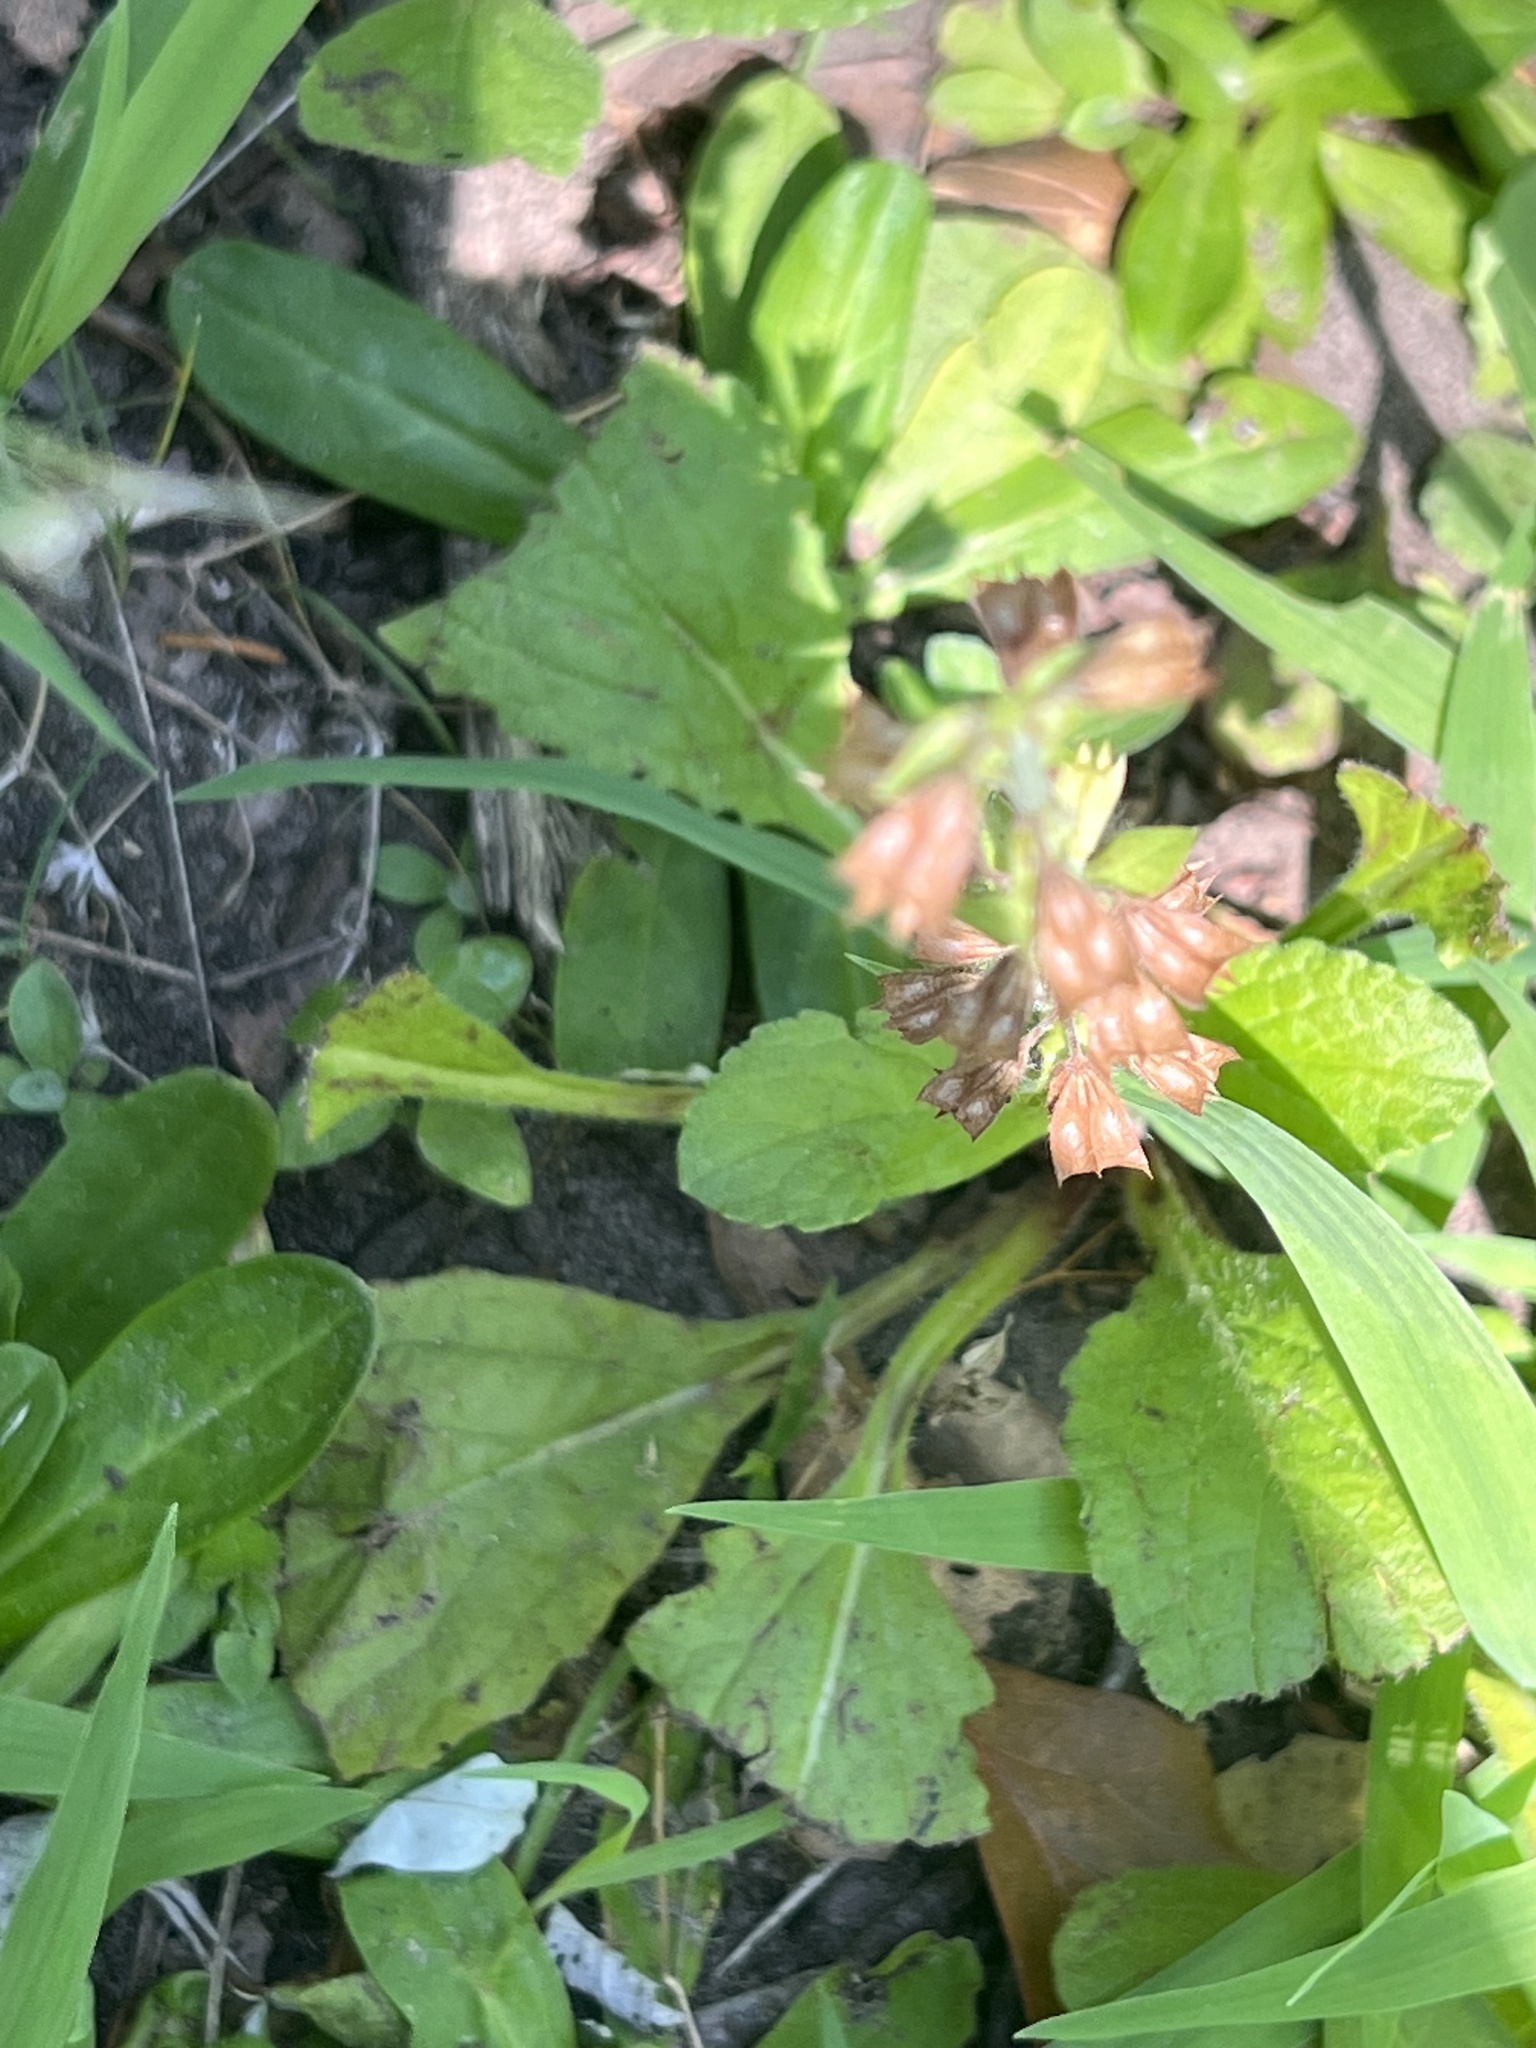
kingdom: Plantae
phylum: Tracheophyta
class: Magnoliopsida
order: Lamiales
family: Lamiaceae
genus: Salvia
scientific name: Salvia lyrata
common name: Cancerweed
